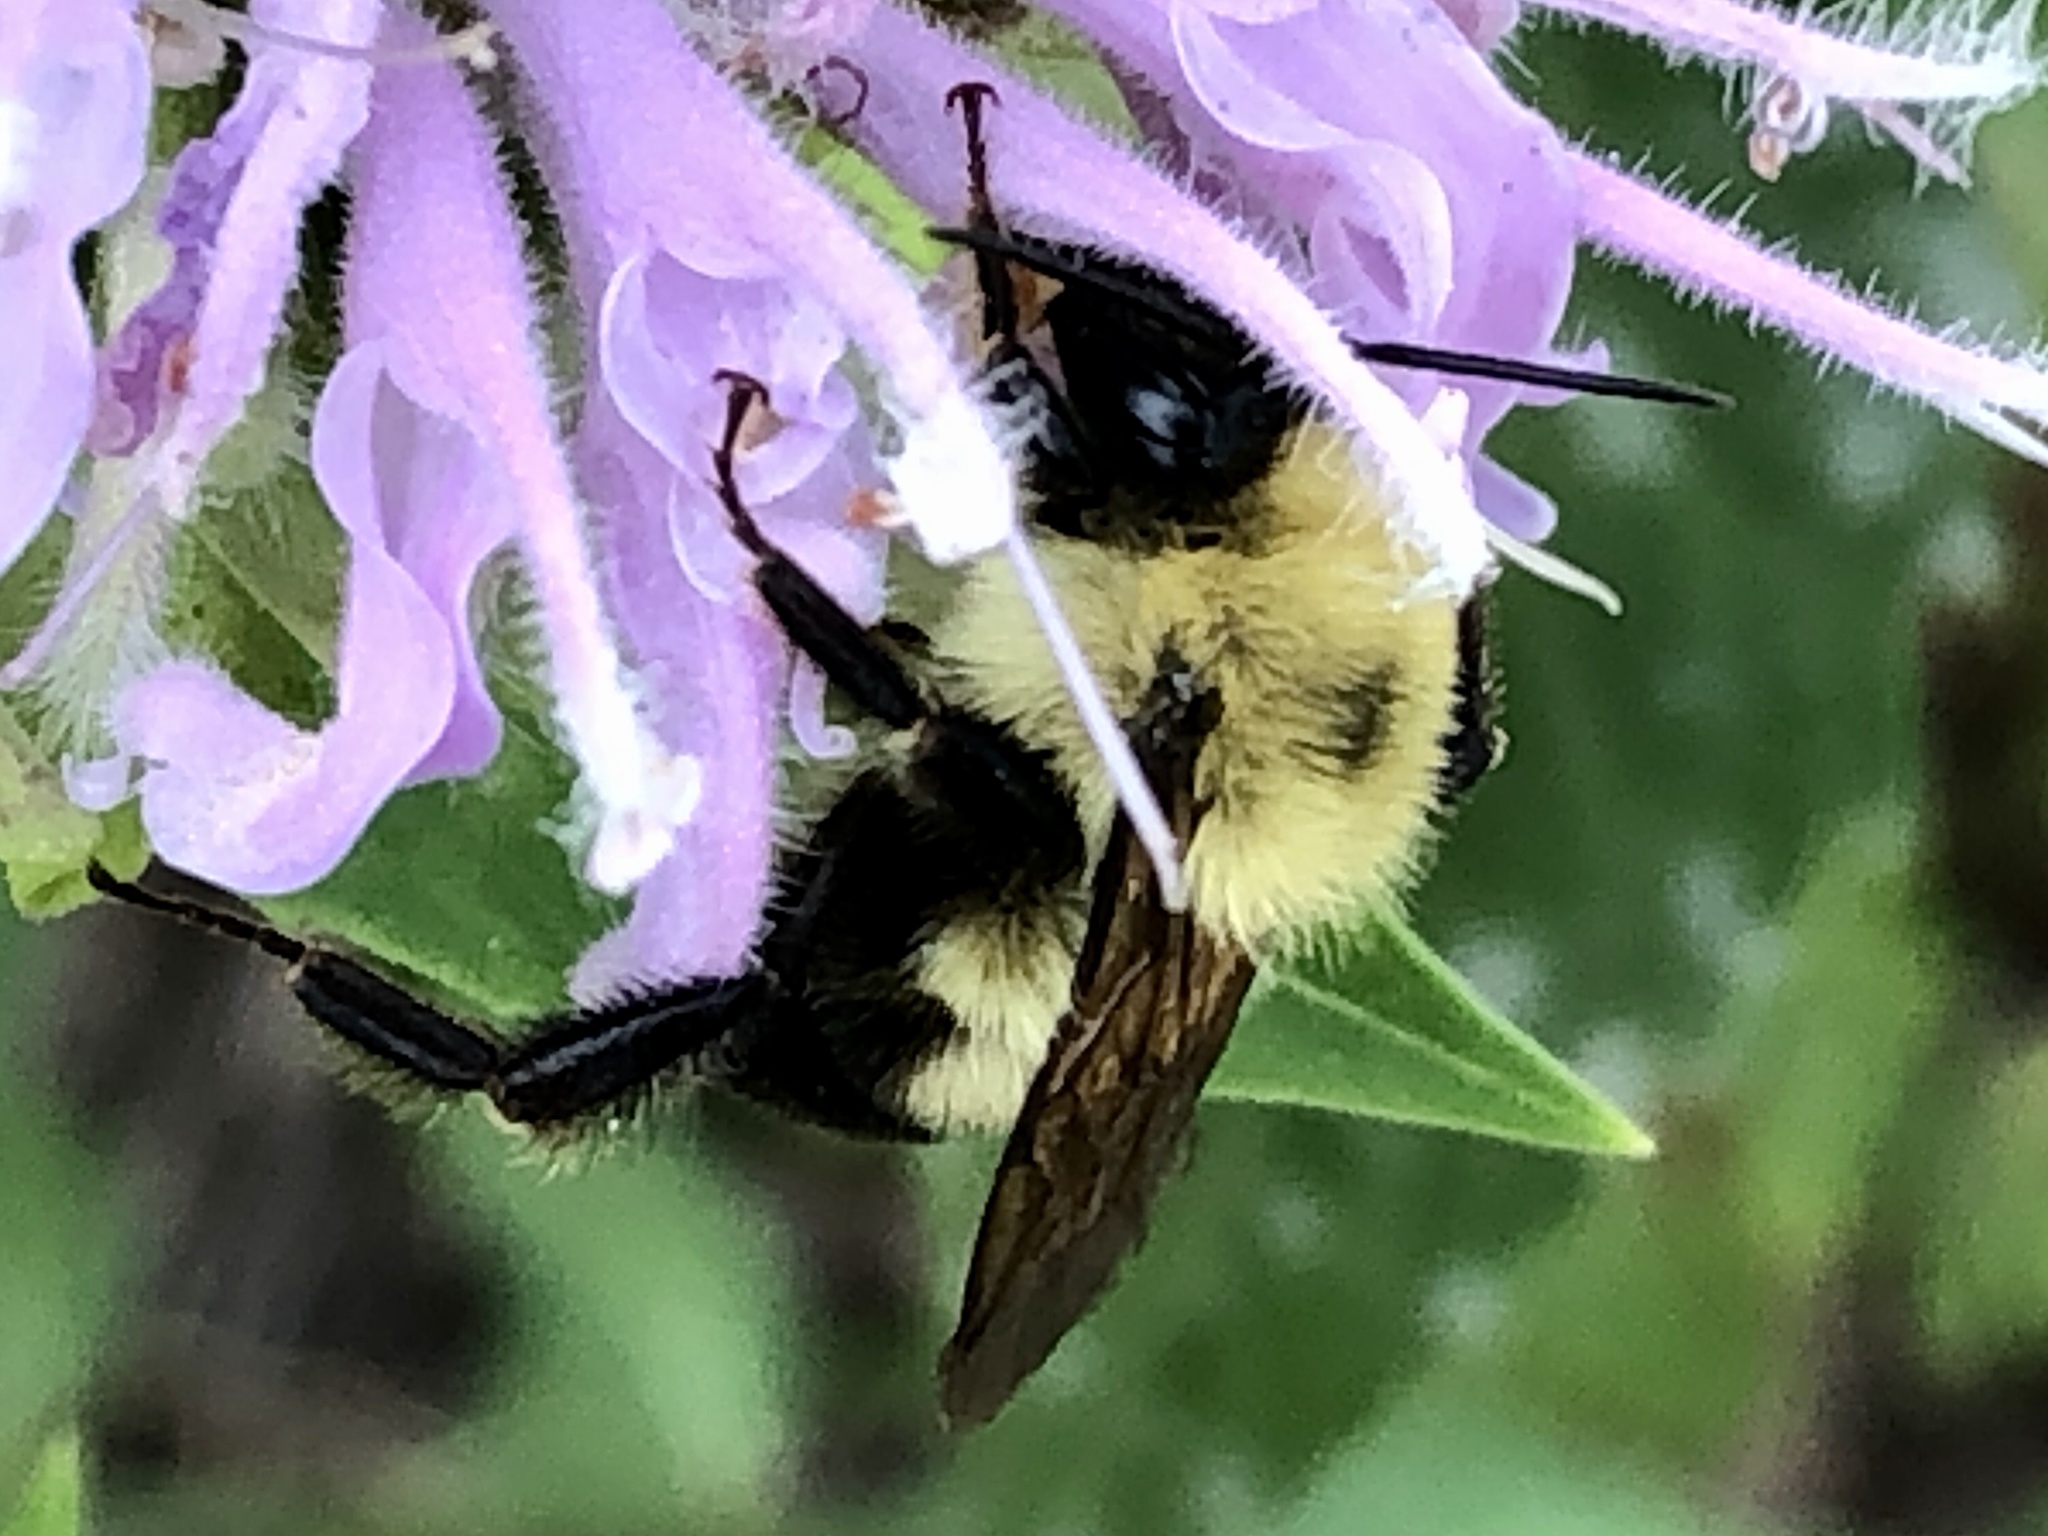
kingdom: Animalia
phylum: Arthropoda
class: Insecta
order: Hymenoptera
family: Apidae
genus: Bombus
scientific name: Bombus bimaculatus
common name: Two-spotted bumble bee
